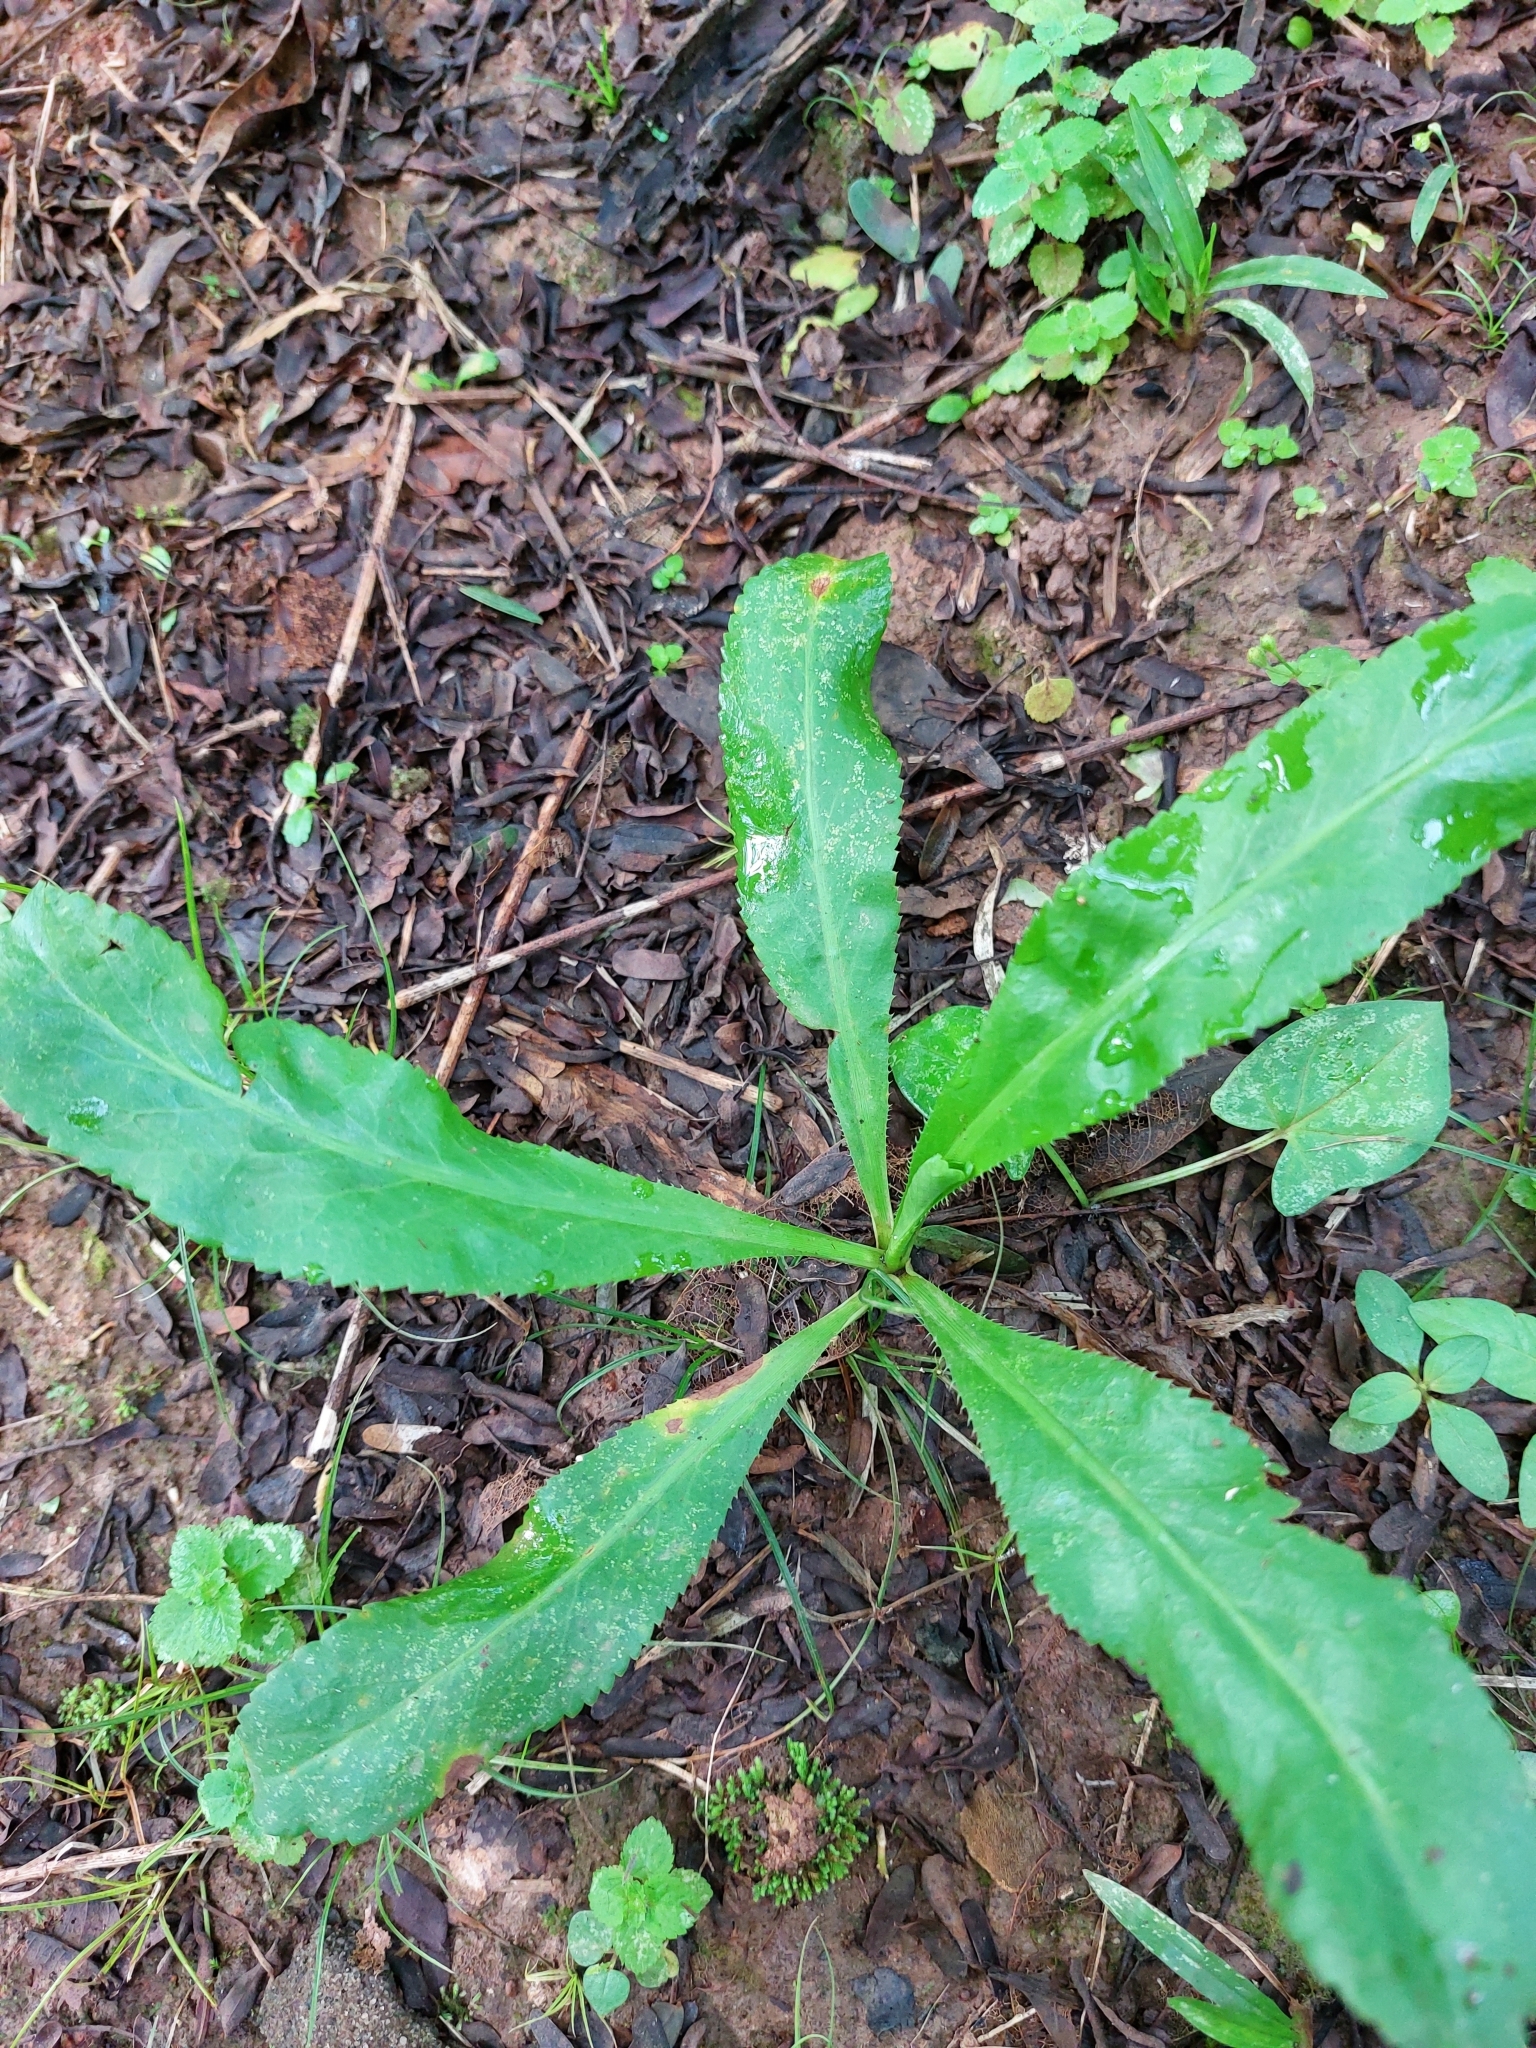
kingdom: Plantae
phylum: Tracheophyta
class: Magnoliopsida
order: Apiales
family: Apiaceae
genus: Eryngium
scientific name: Eryngium foetidum
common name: Fitweed
